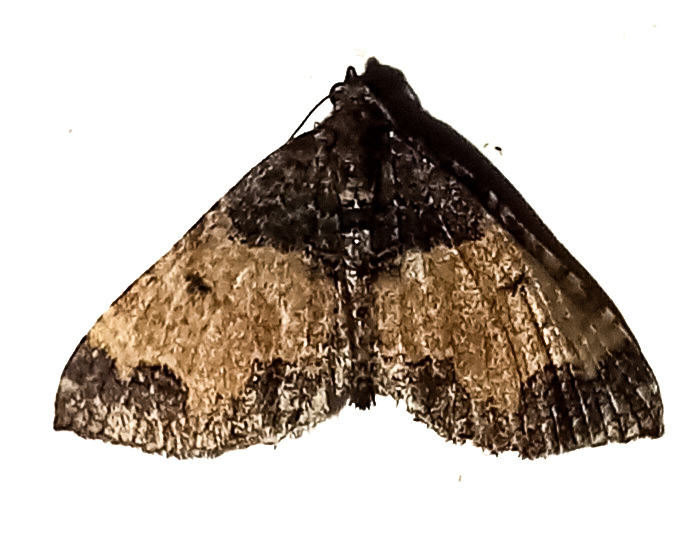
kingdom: Animalia
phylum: Arthropoda
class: Insecta
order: Lepidoptera
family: Geometridae
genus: Hydriomena
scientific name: Hydriomena arida
